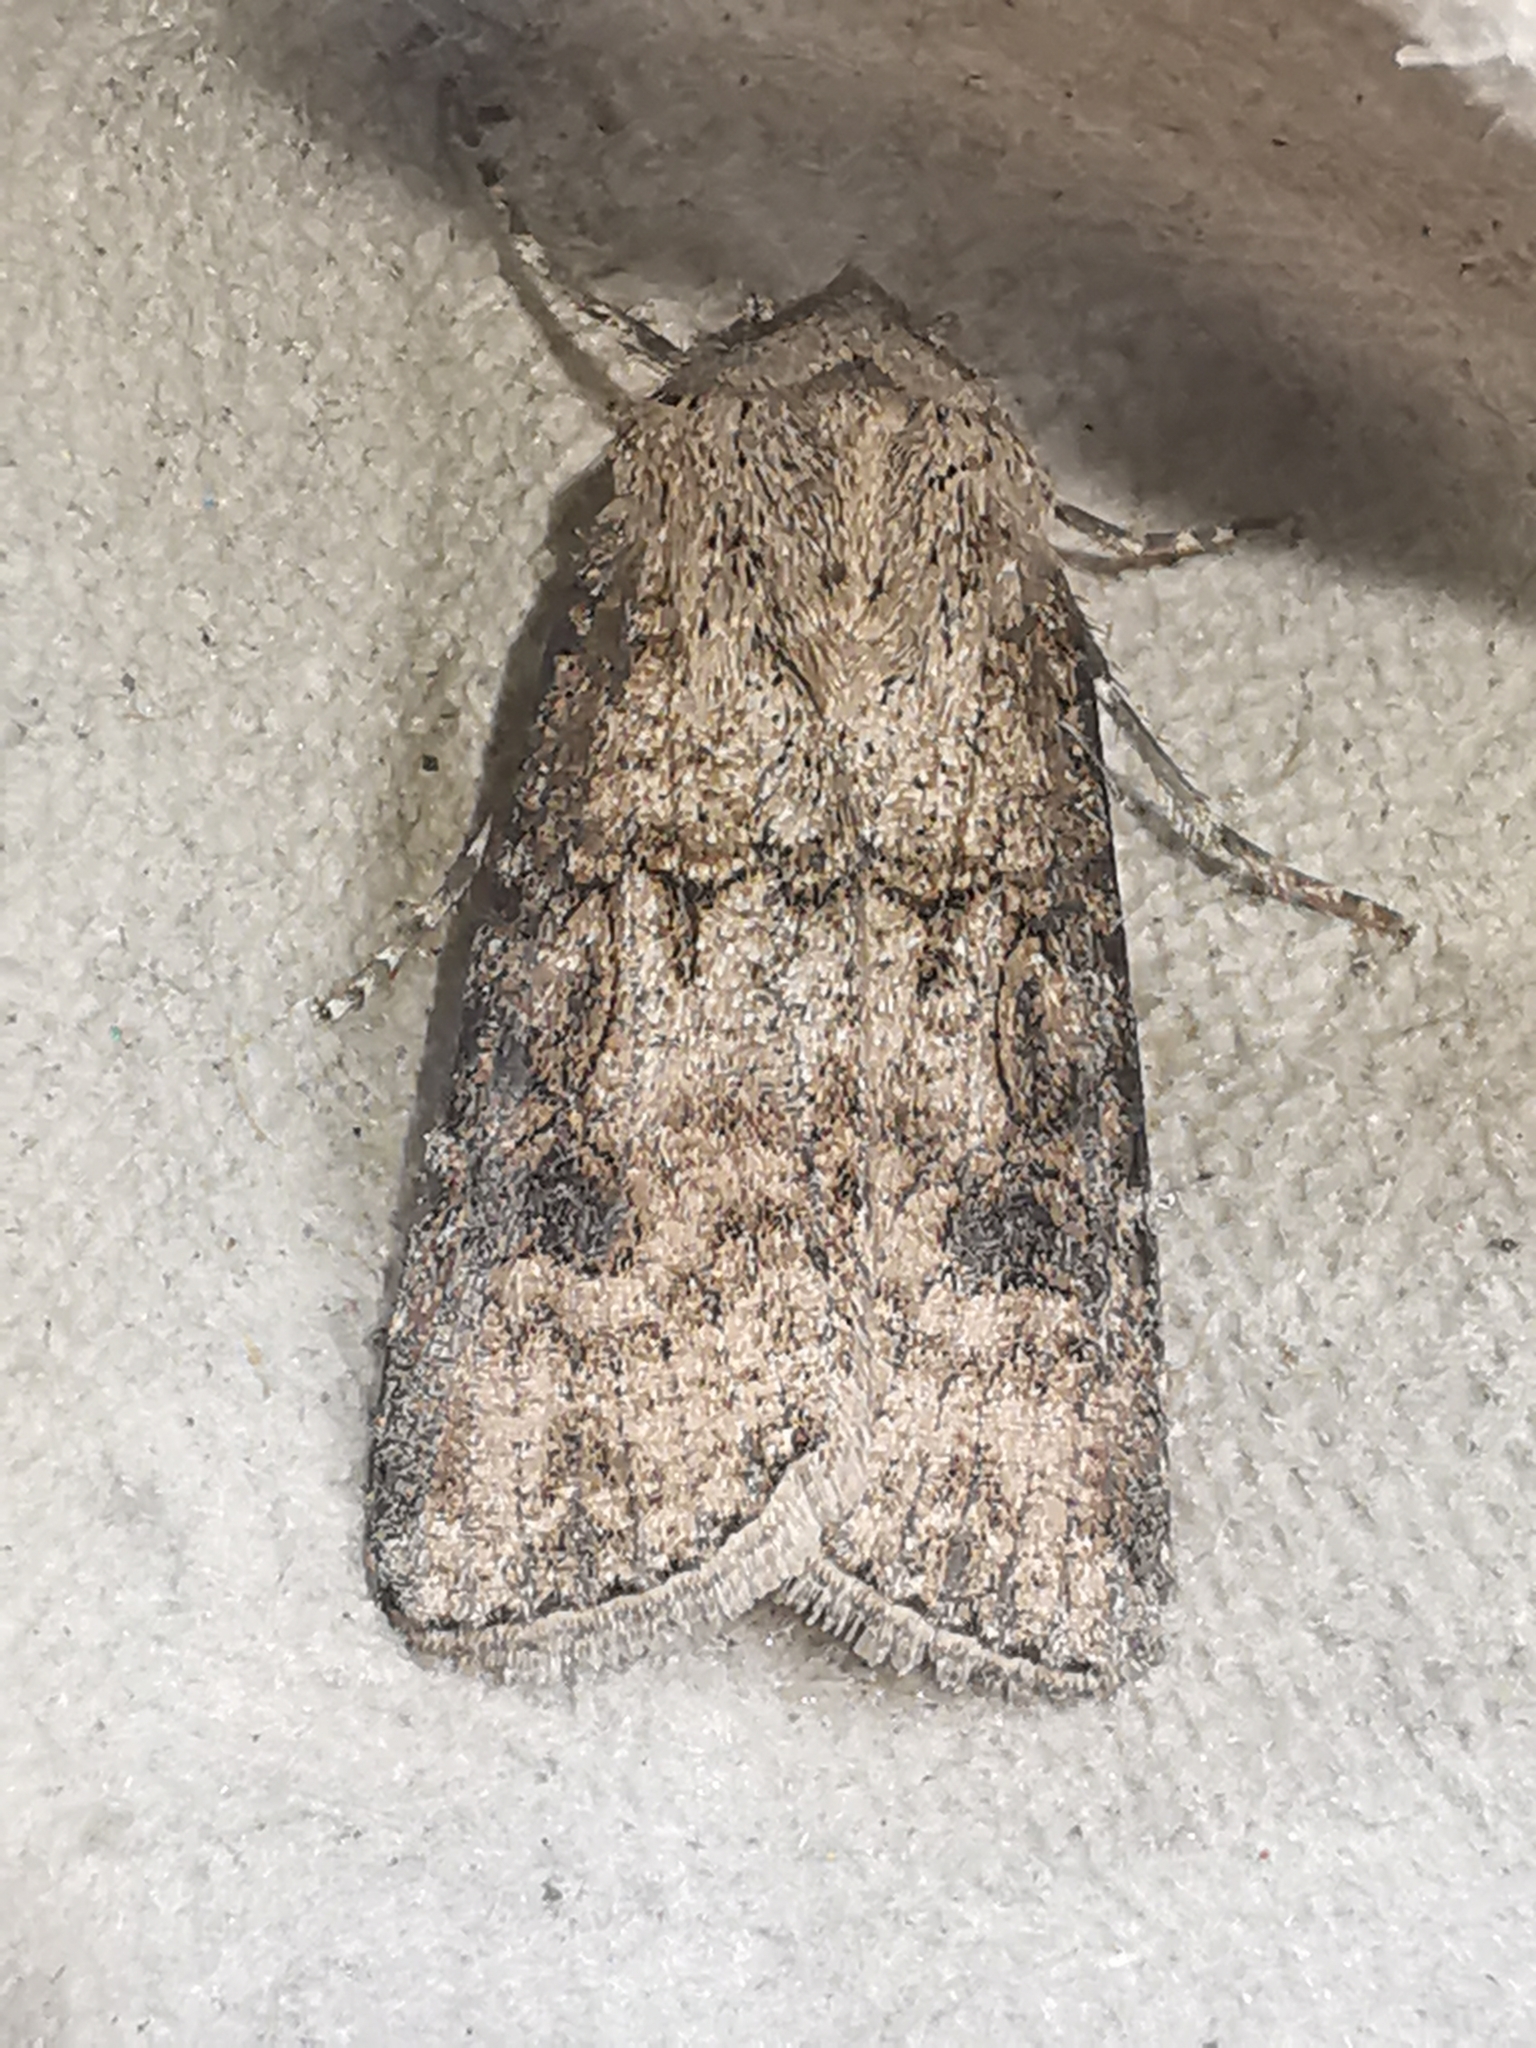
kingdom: Animalia
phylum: Arthropoda
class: Insecta
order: Lepidoptera
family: Noctuidae
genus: Agrotis
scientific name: Agrotis segetum
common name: Turnip moth
